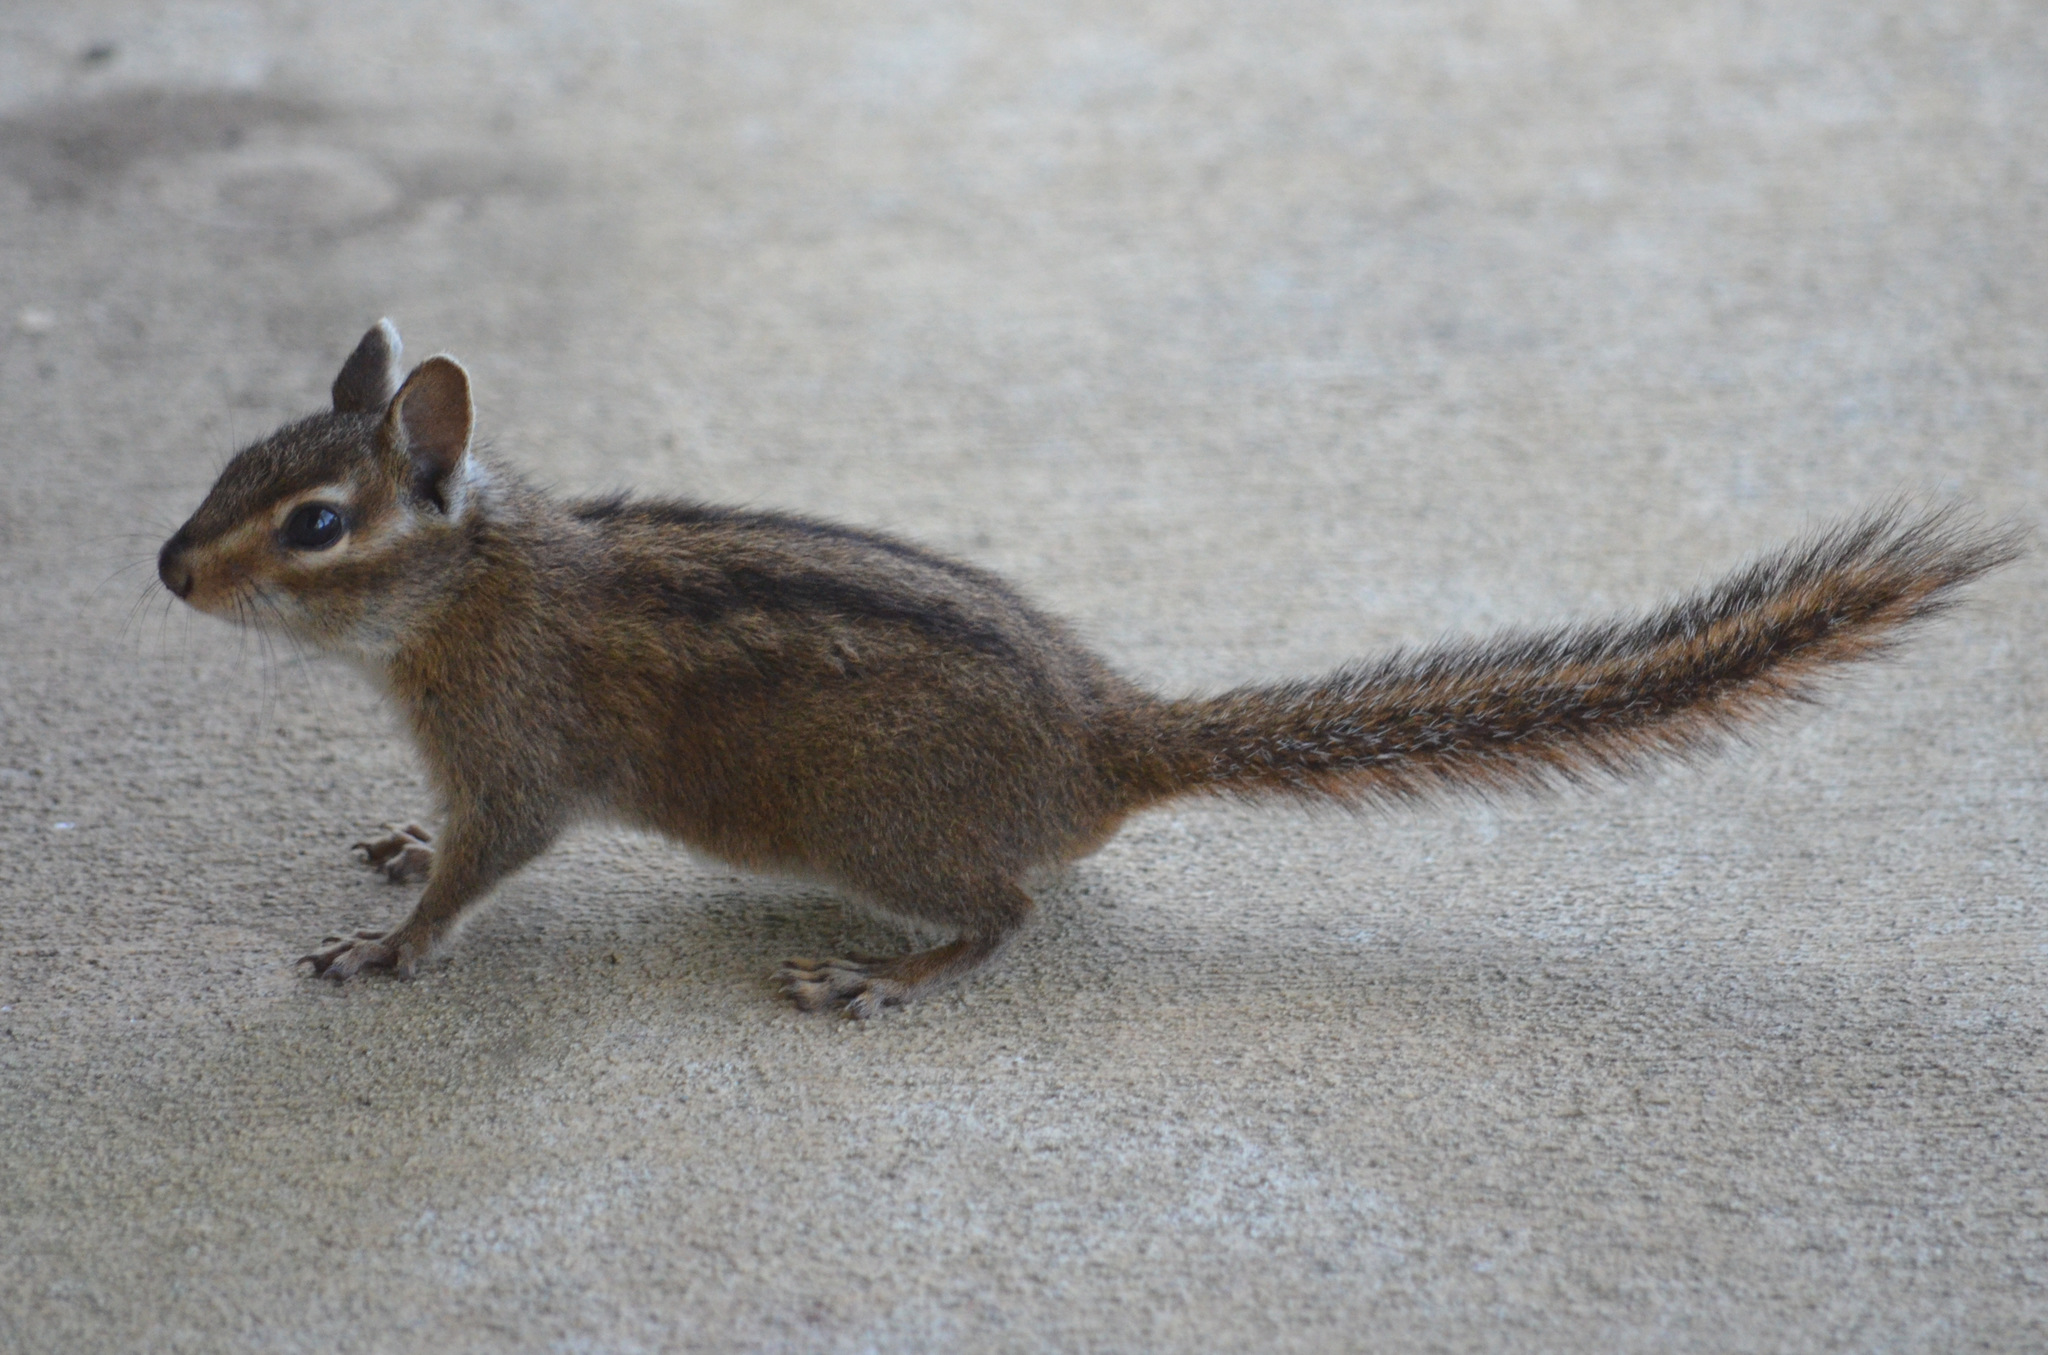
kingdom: Animalia
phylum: Chordata
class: Mammalia
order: Rodentia
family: Sciuridae
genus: Tamias
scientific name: Tamias townsendii
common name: Townsend's chipmunk
